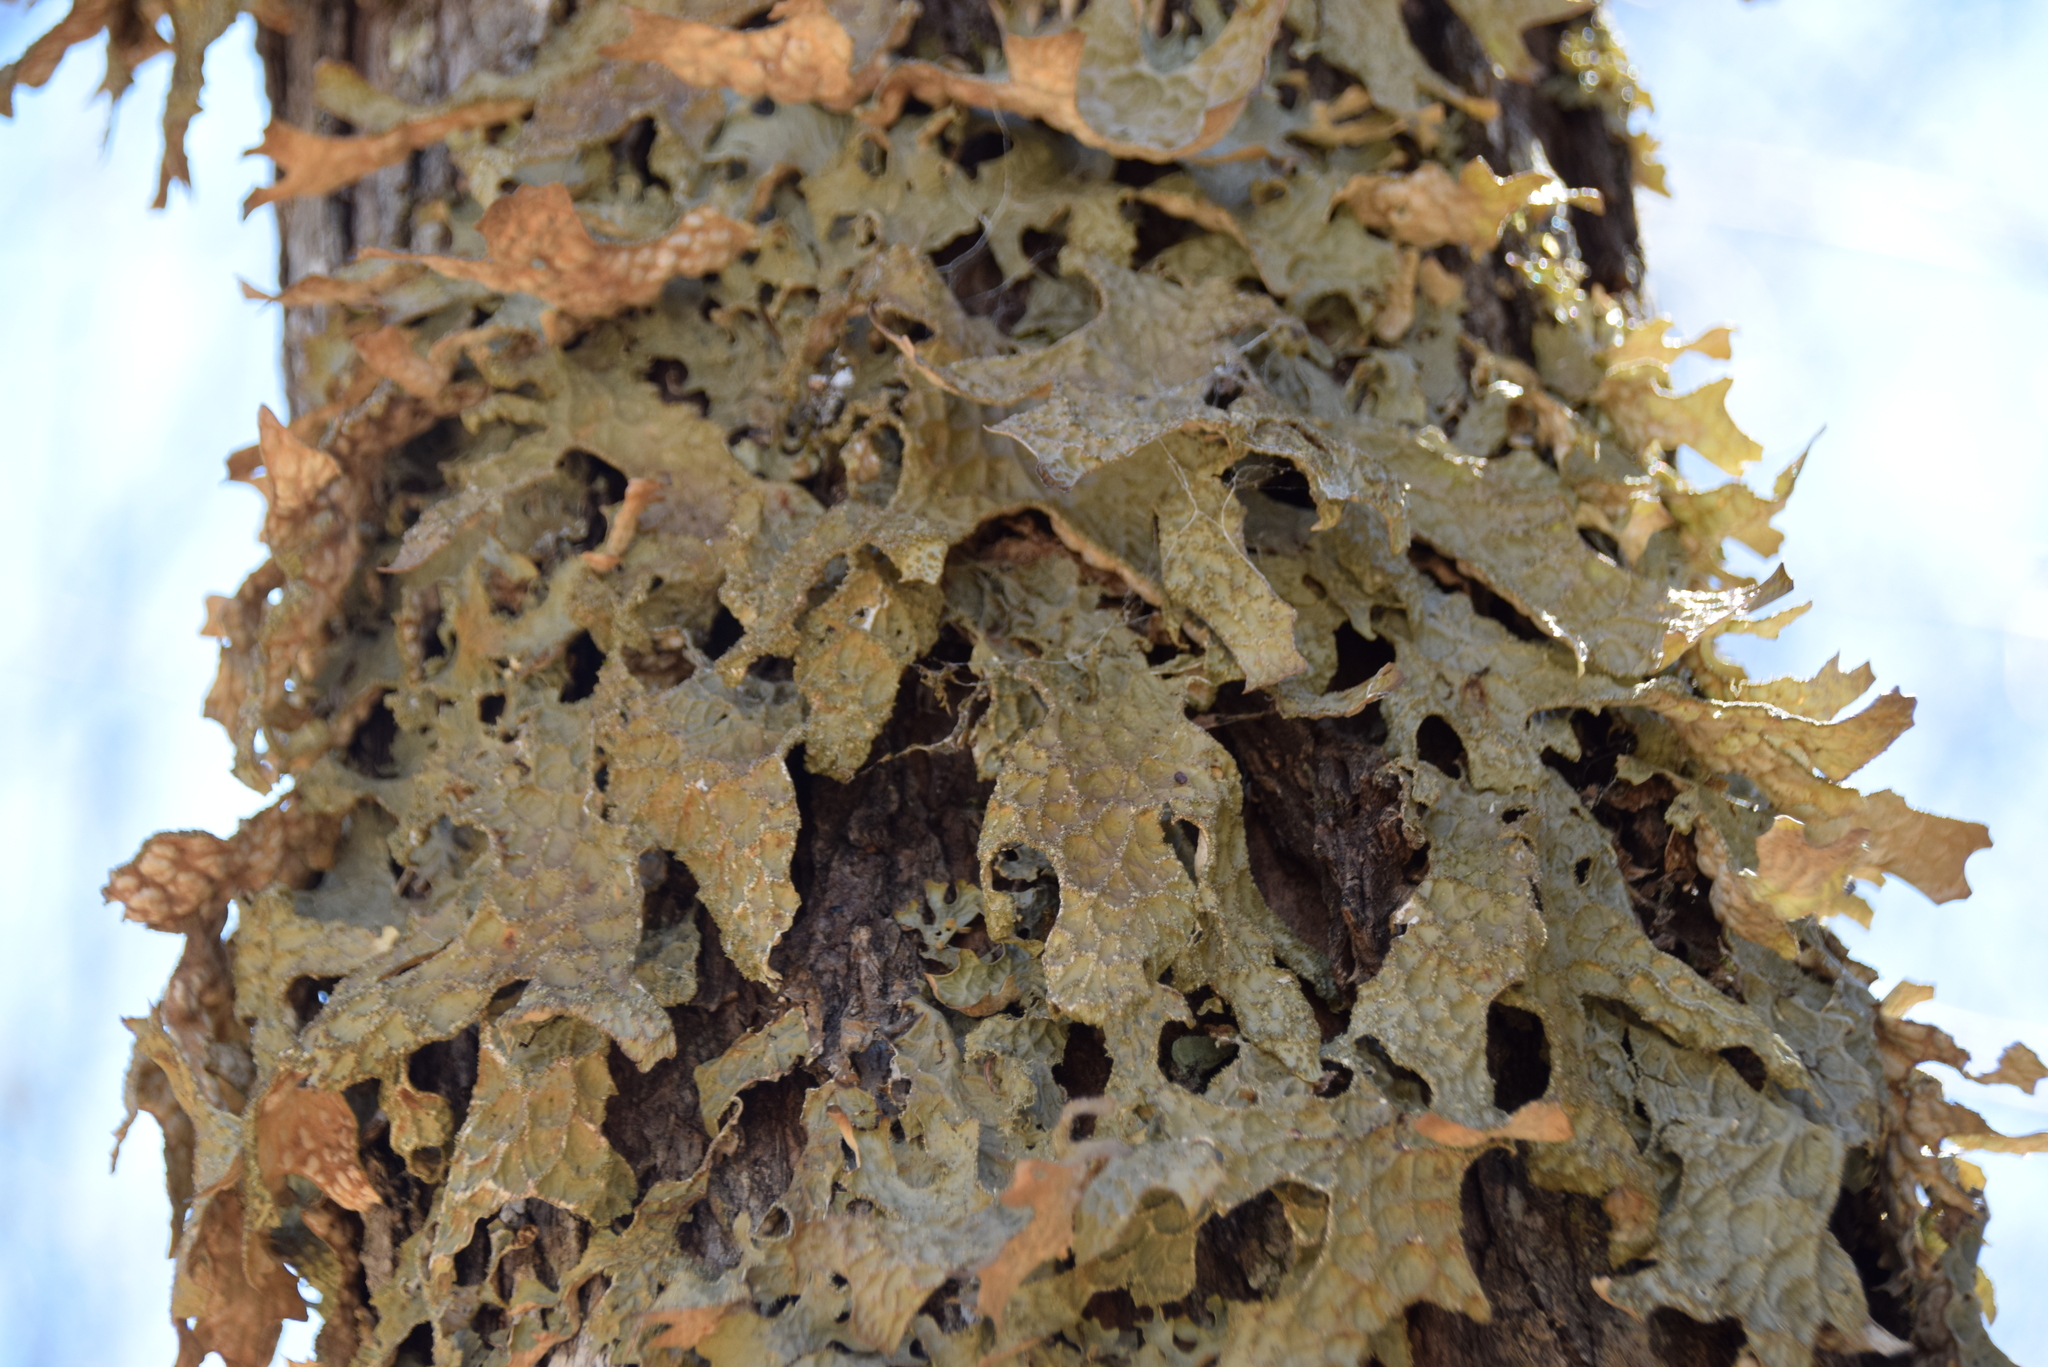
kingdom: Fungi
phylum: Ascomycota
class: Lecanoromycetes
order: Peltigerales
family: Lobariaceae
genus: Lobaria
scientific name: Lobaria pulmonaria
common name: Lungwort
